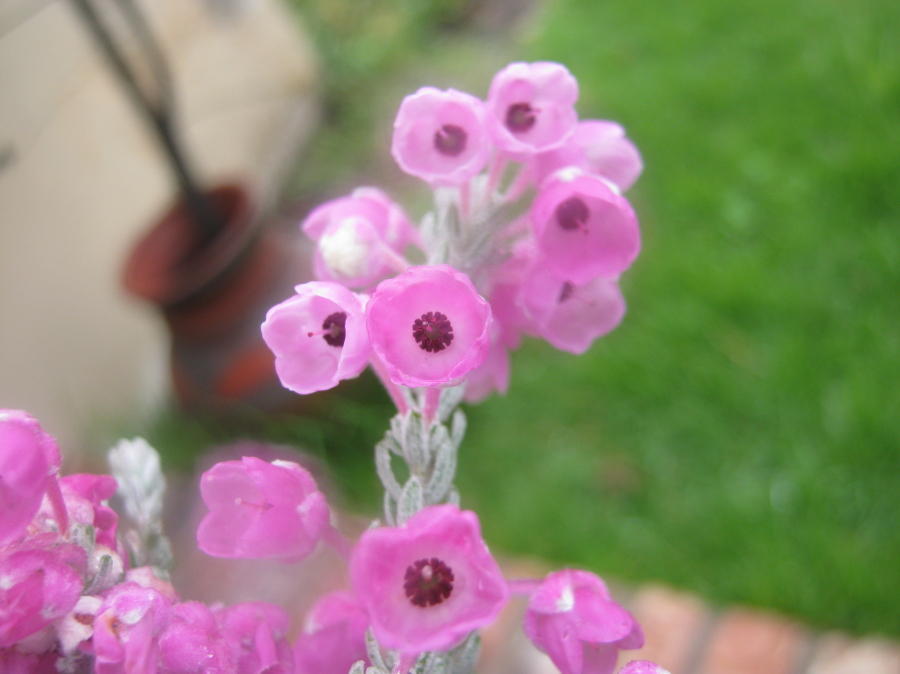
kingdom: Plantae
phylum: Tracheophyta
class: Magnoliopsida
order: Ericales
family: Ericaceae
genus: Erica
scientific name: Erica passerina
